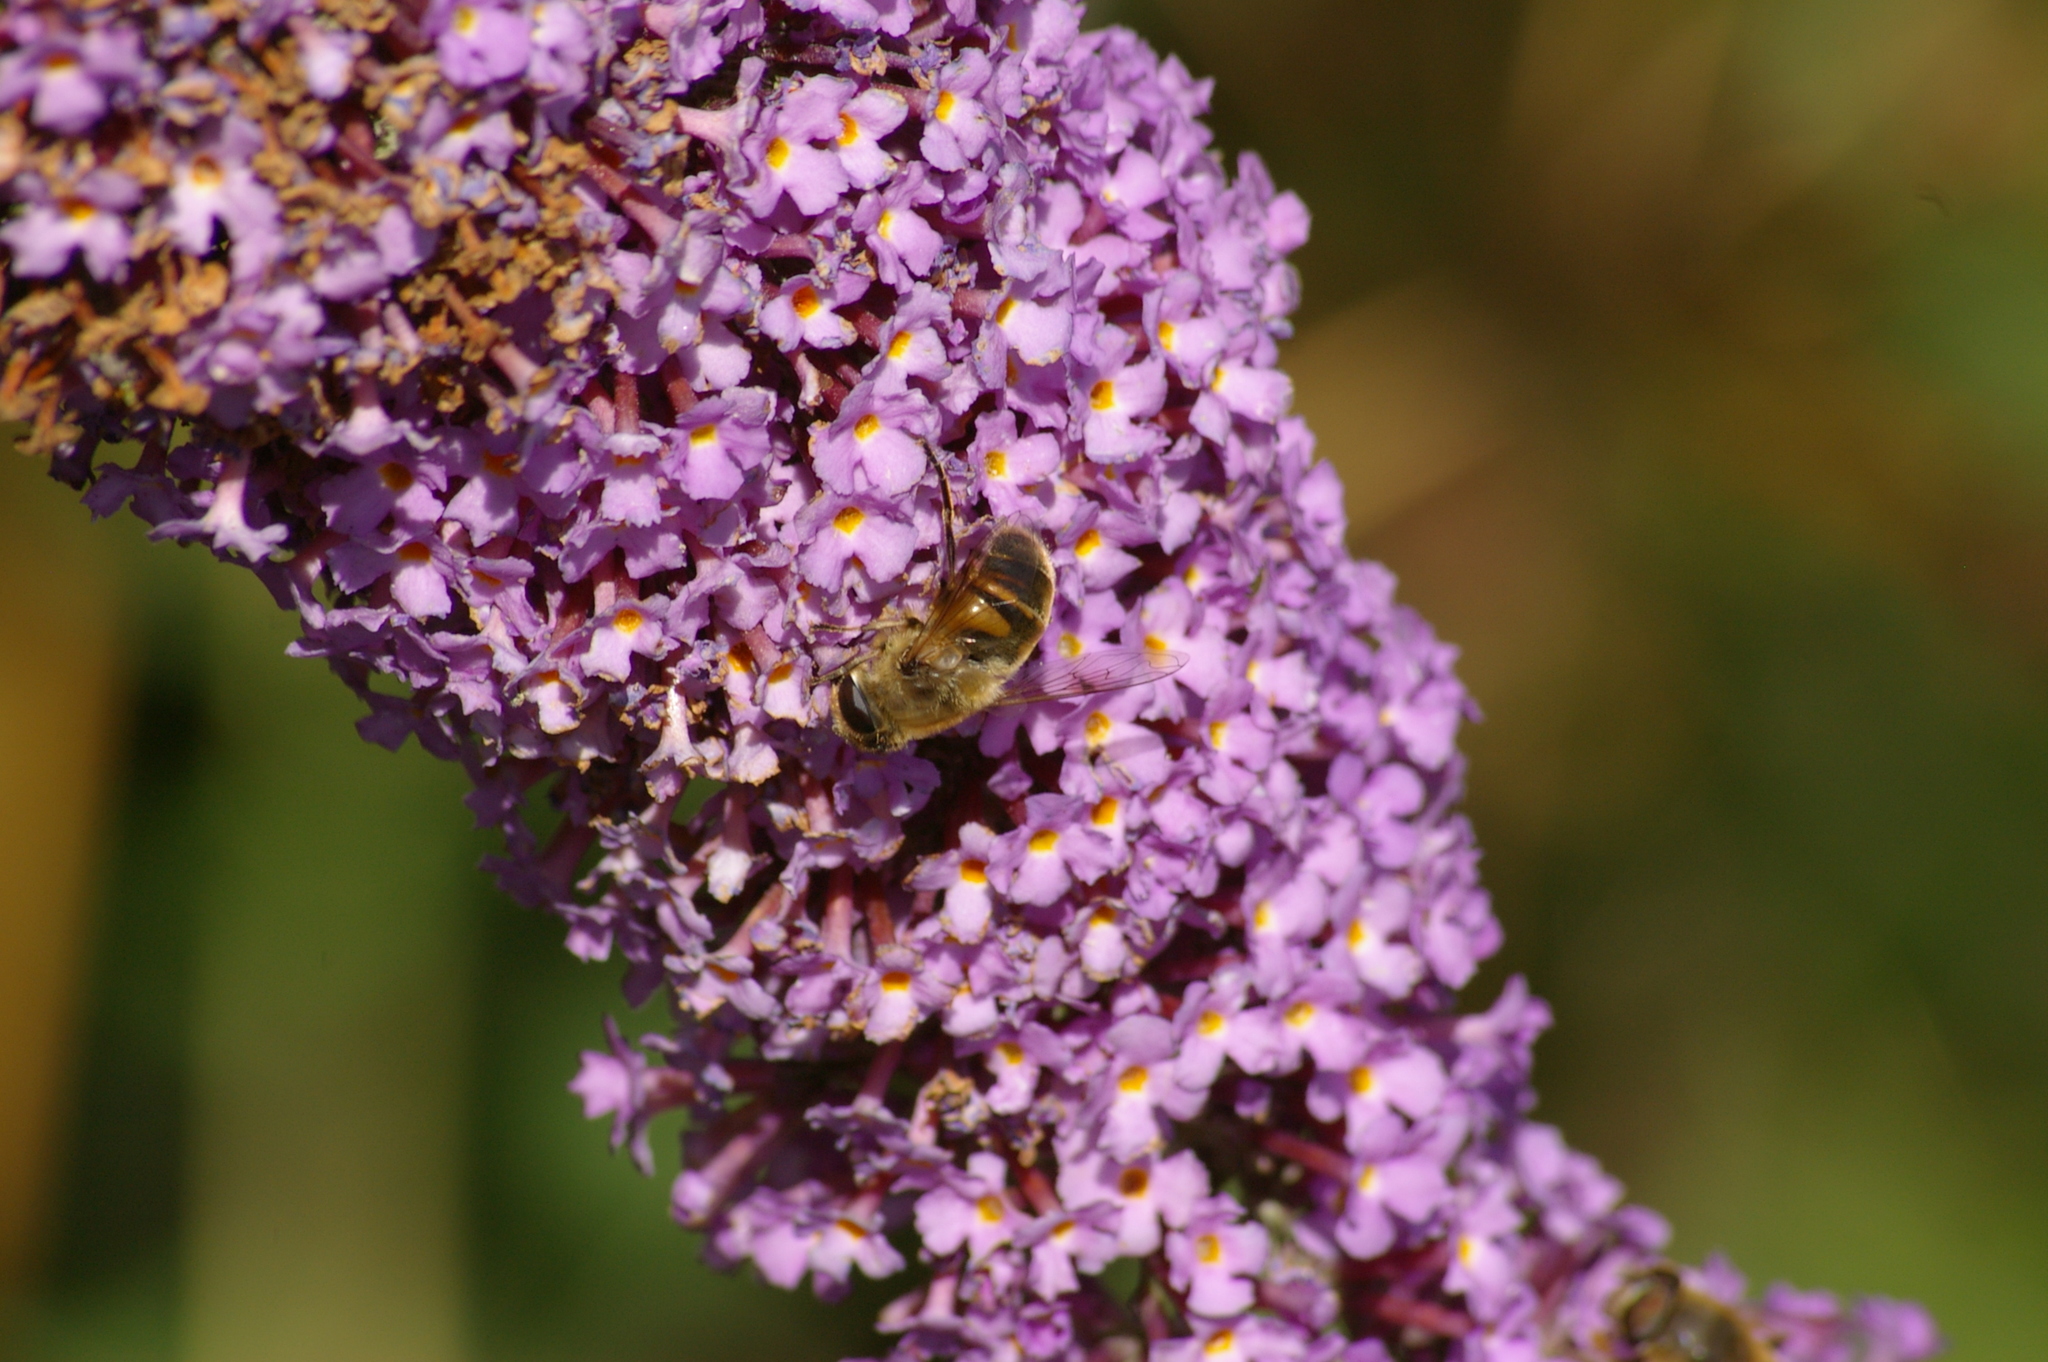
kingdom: Plantae
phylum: Tracheophyta
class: Magnoliopsida
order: Lamiales
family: Scrophulariaceae
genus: Buddleja
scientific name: Buddleja davidii
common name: Butterfly-bush
